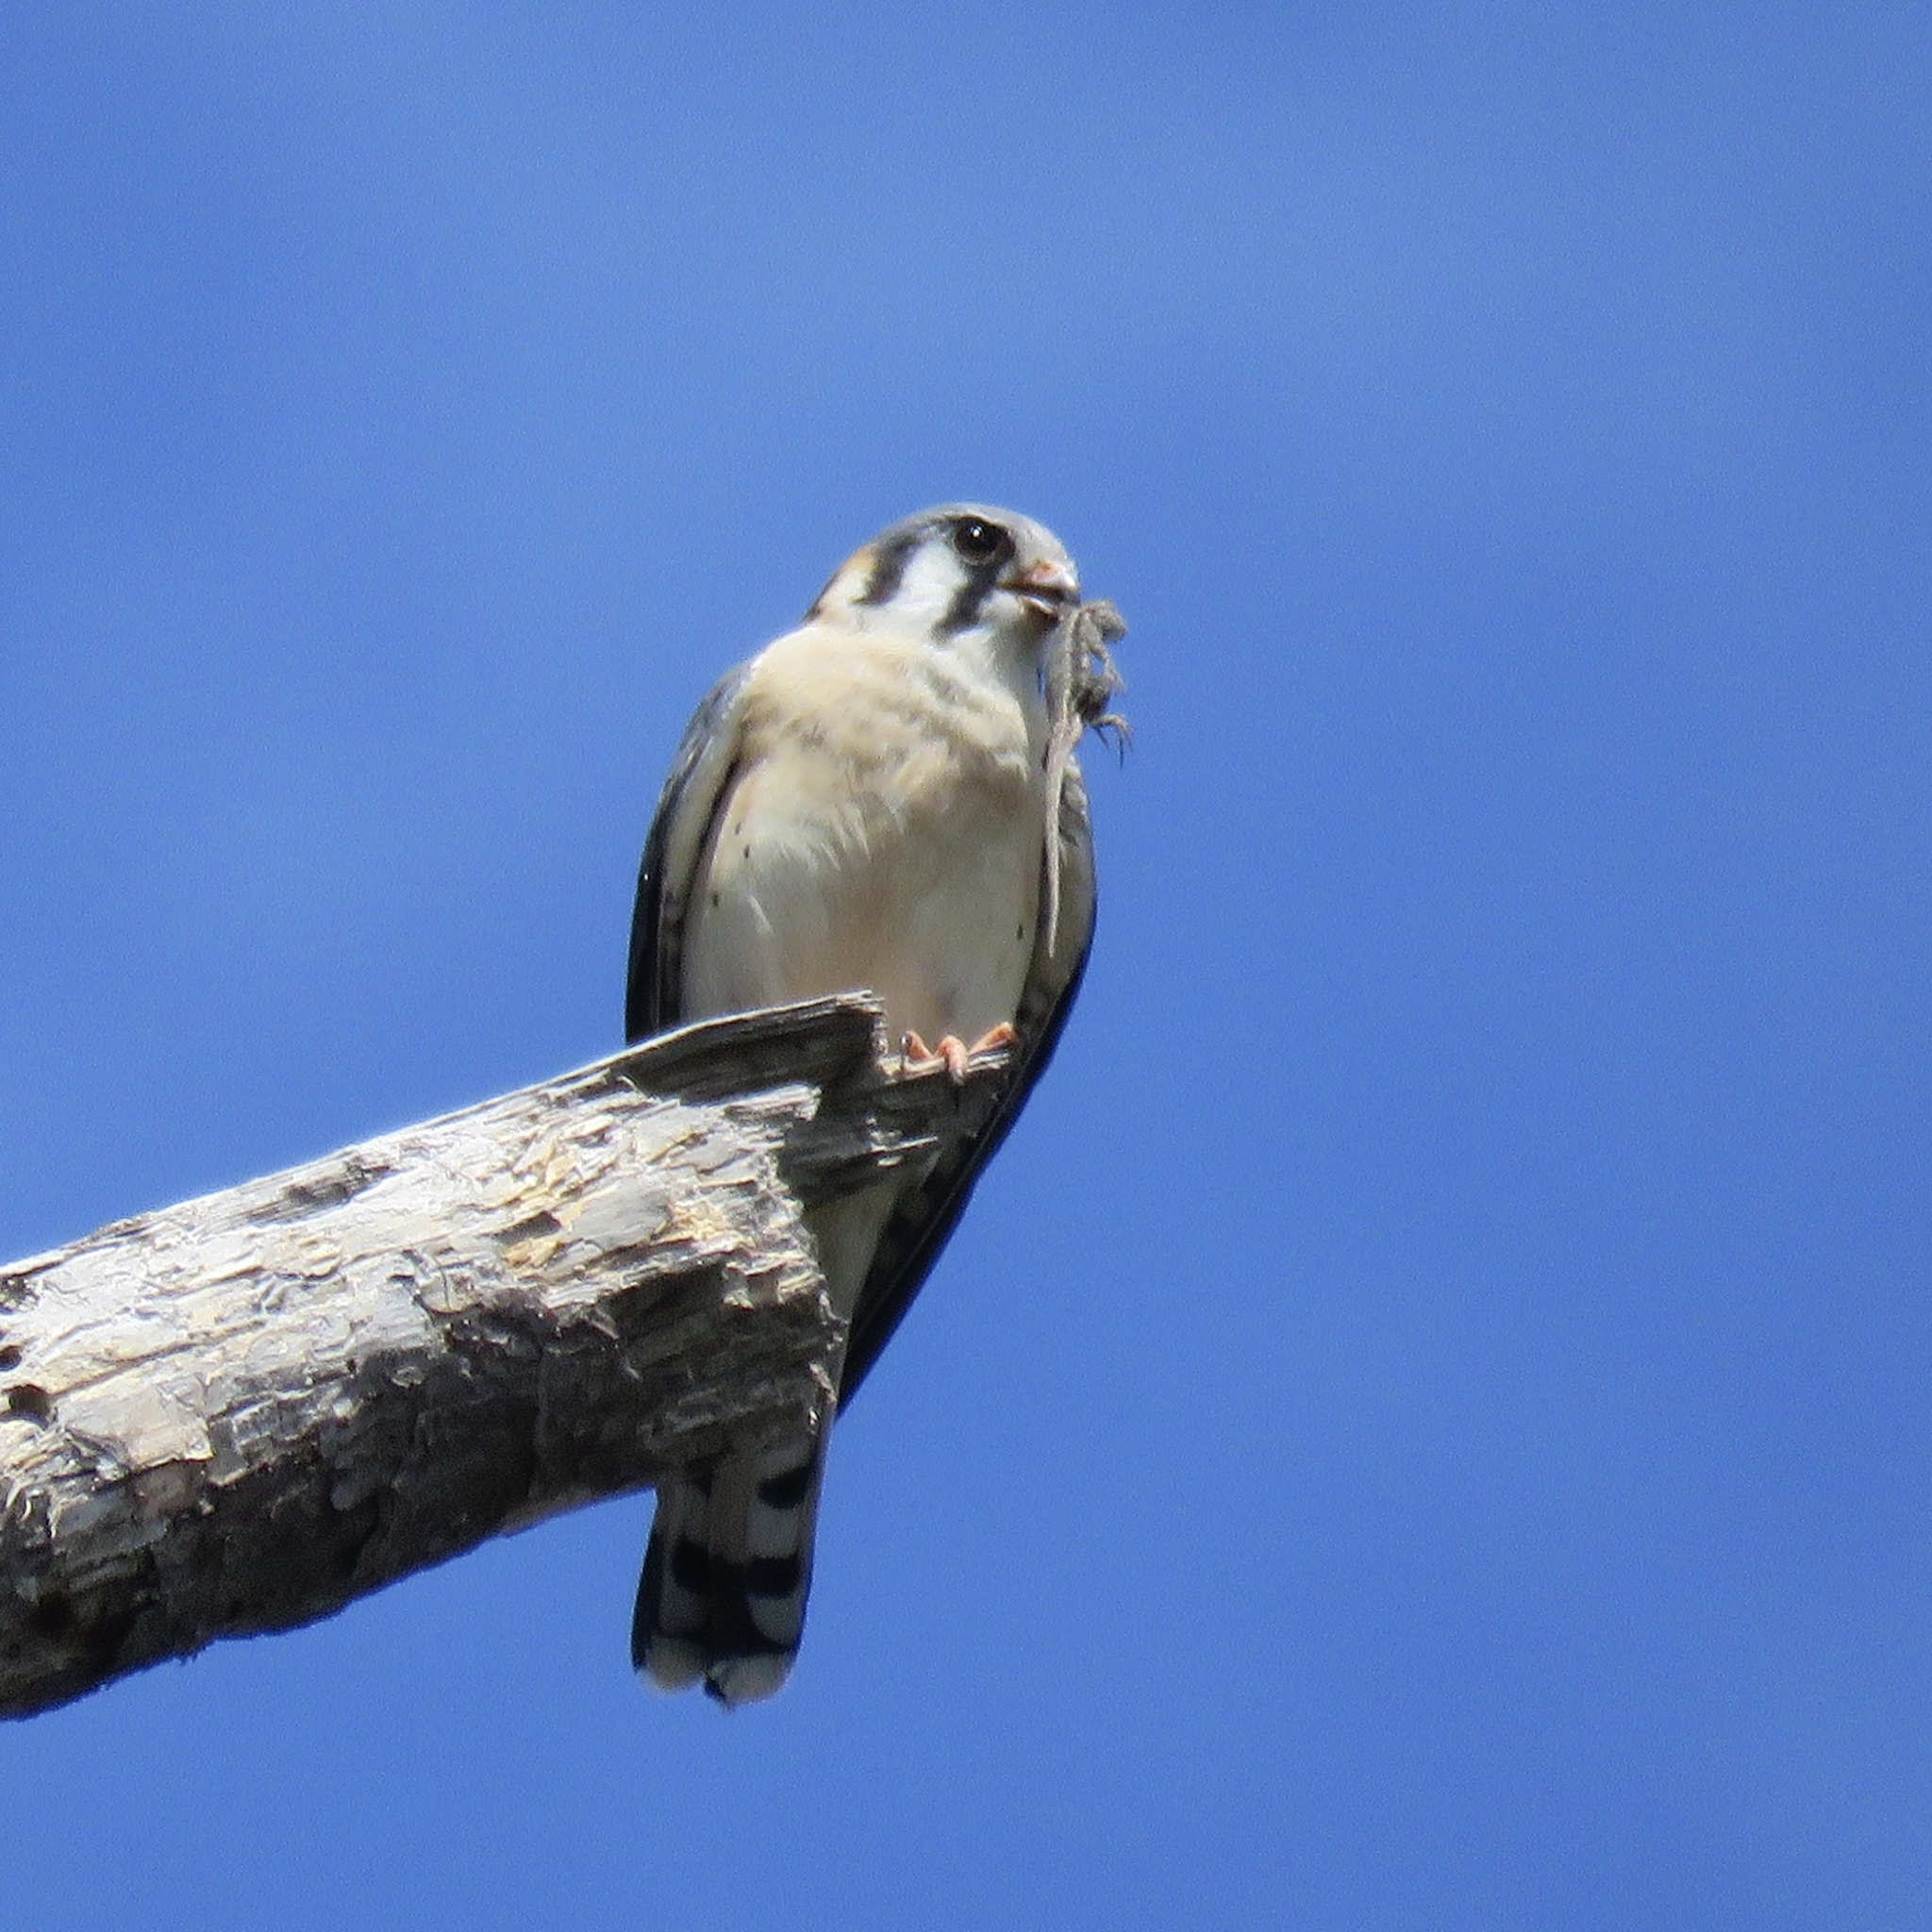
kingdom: Animalia
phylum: Chordata
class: Aves
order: Falconiformes
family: Falconidae
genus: Falco
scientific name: Falco sparverius
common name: American kestrel
